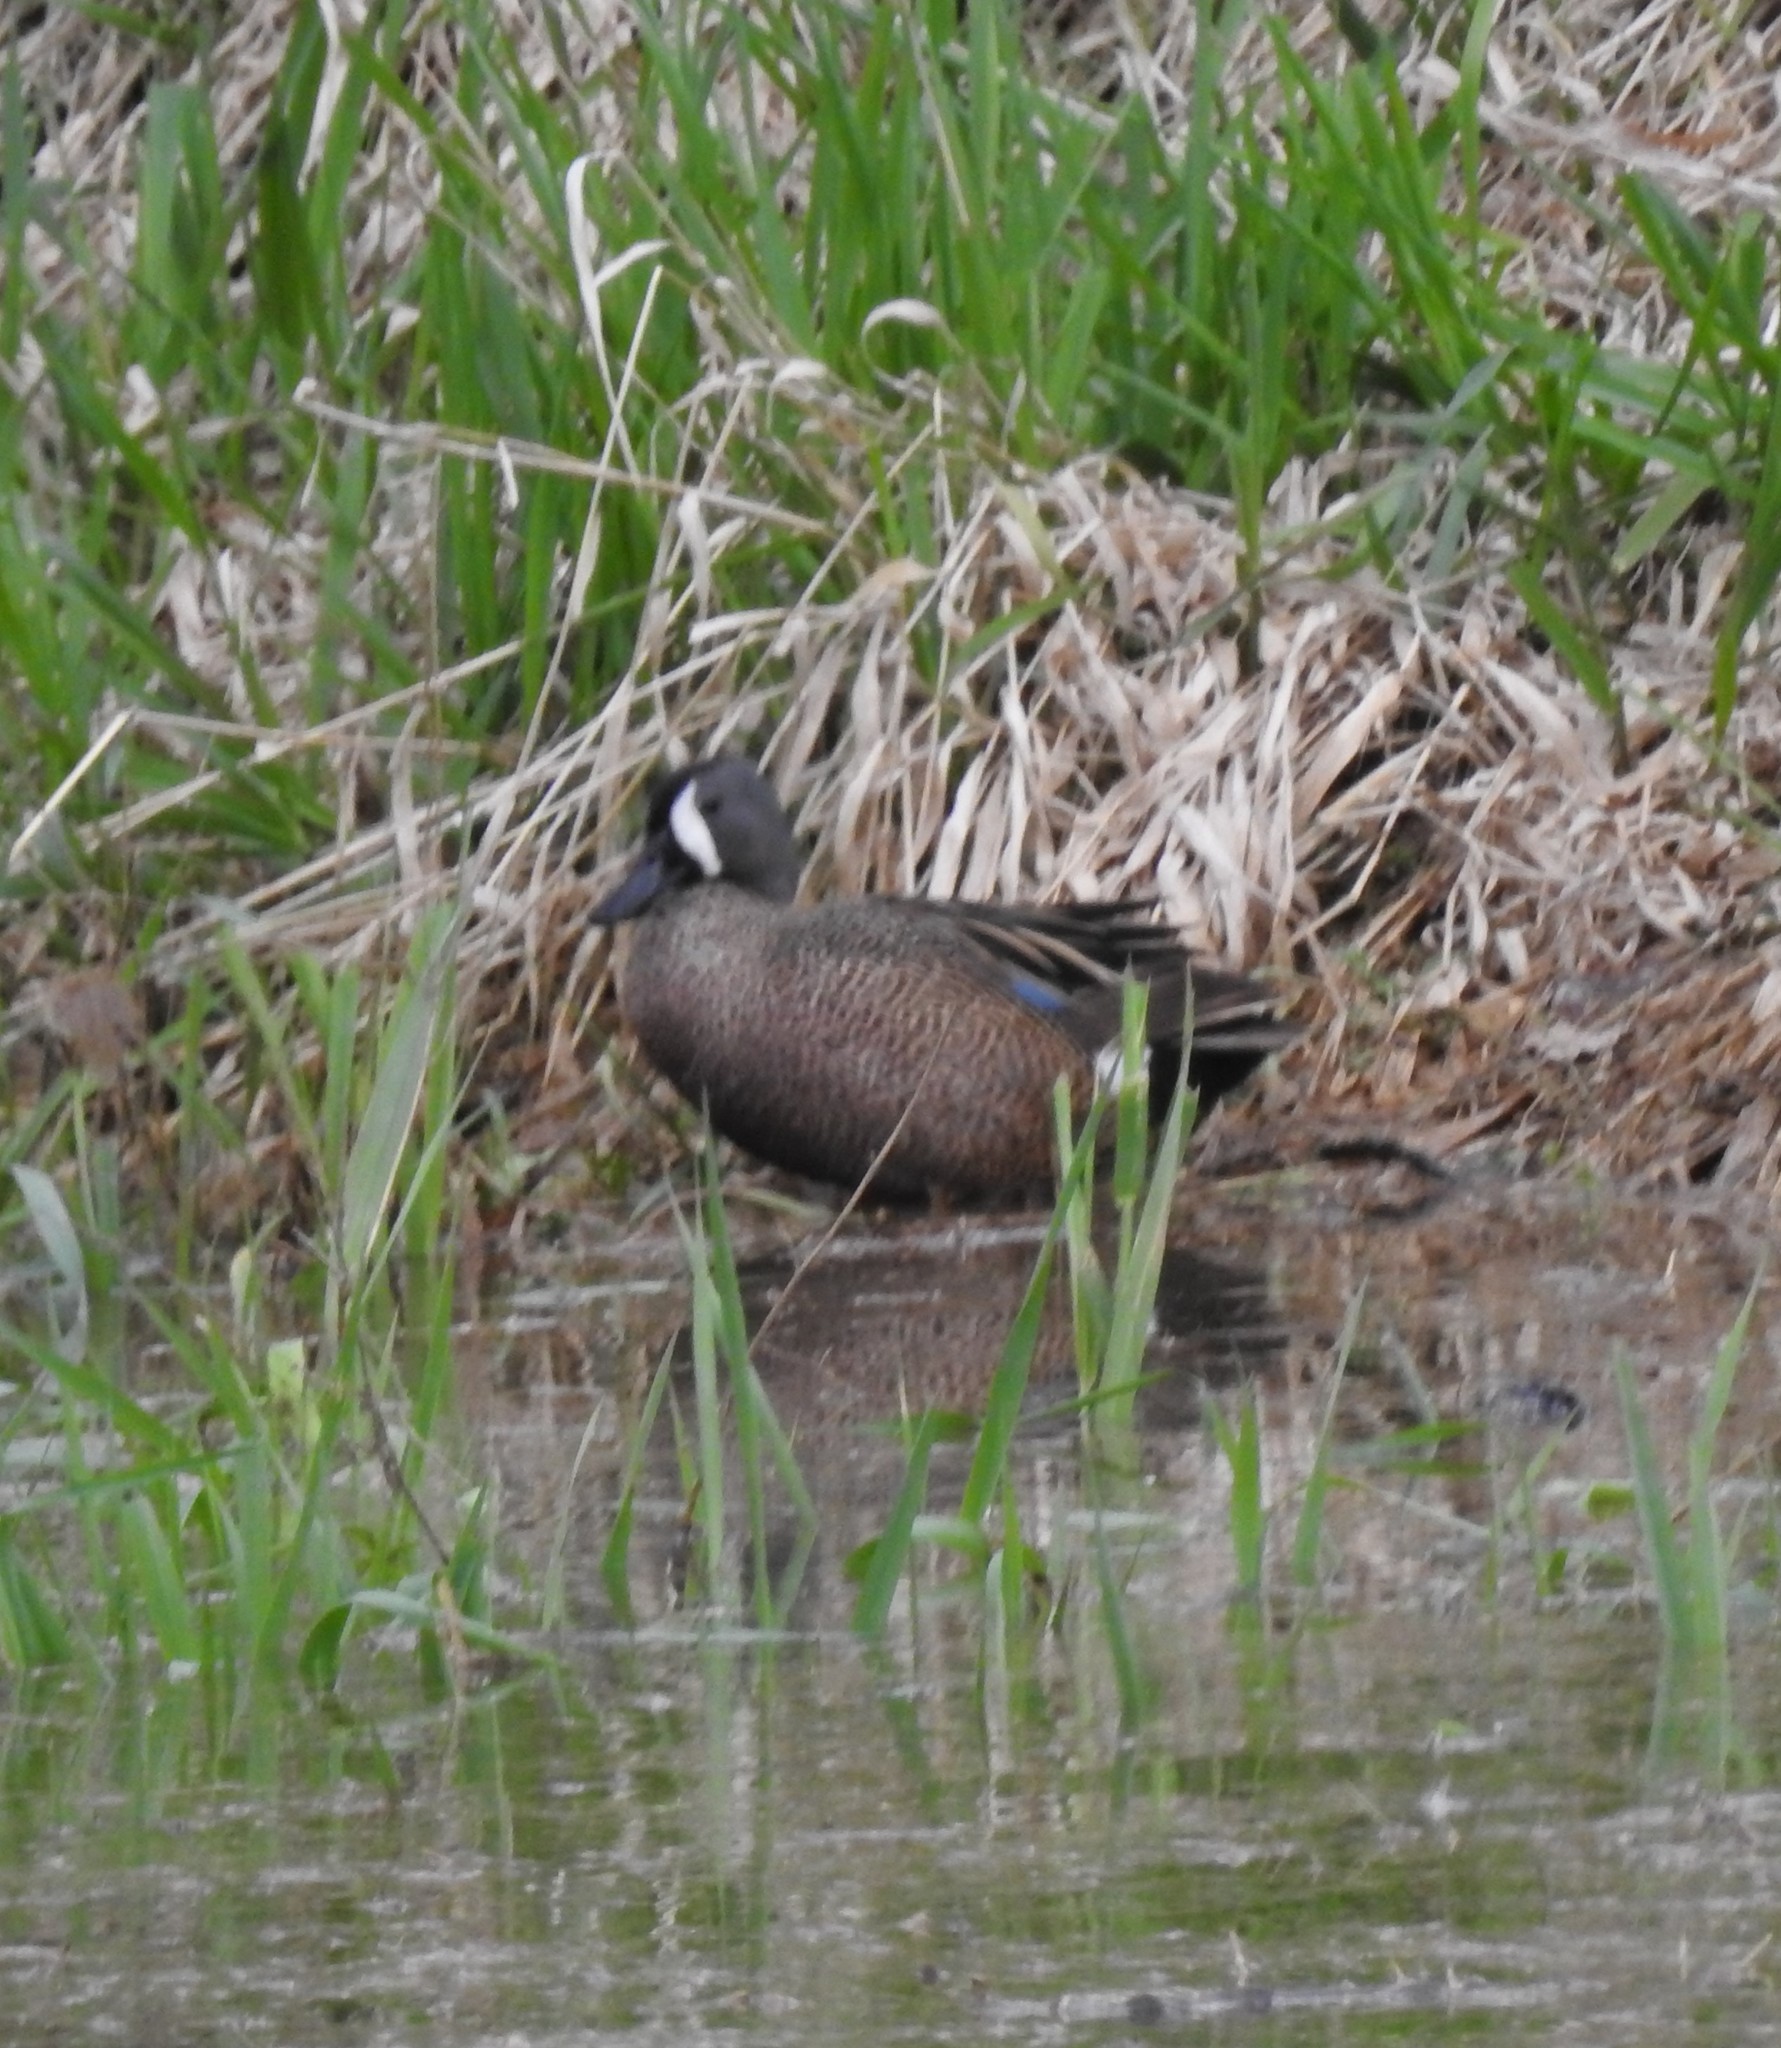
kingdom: Animalia
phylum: Chordata
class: Aves
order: Anseriformes
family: Anatidae
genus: Spatula
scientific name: Spatula discors
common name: Blue-winged teal
